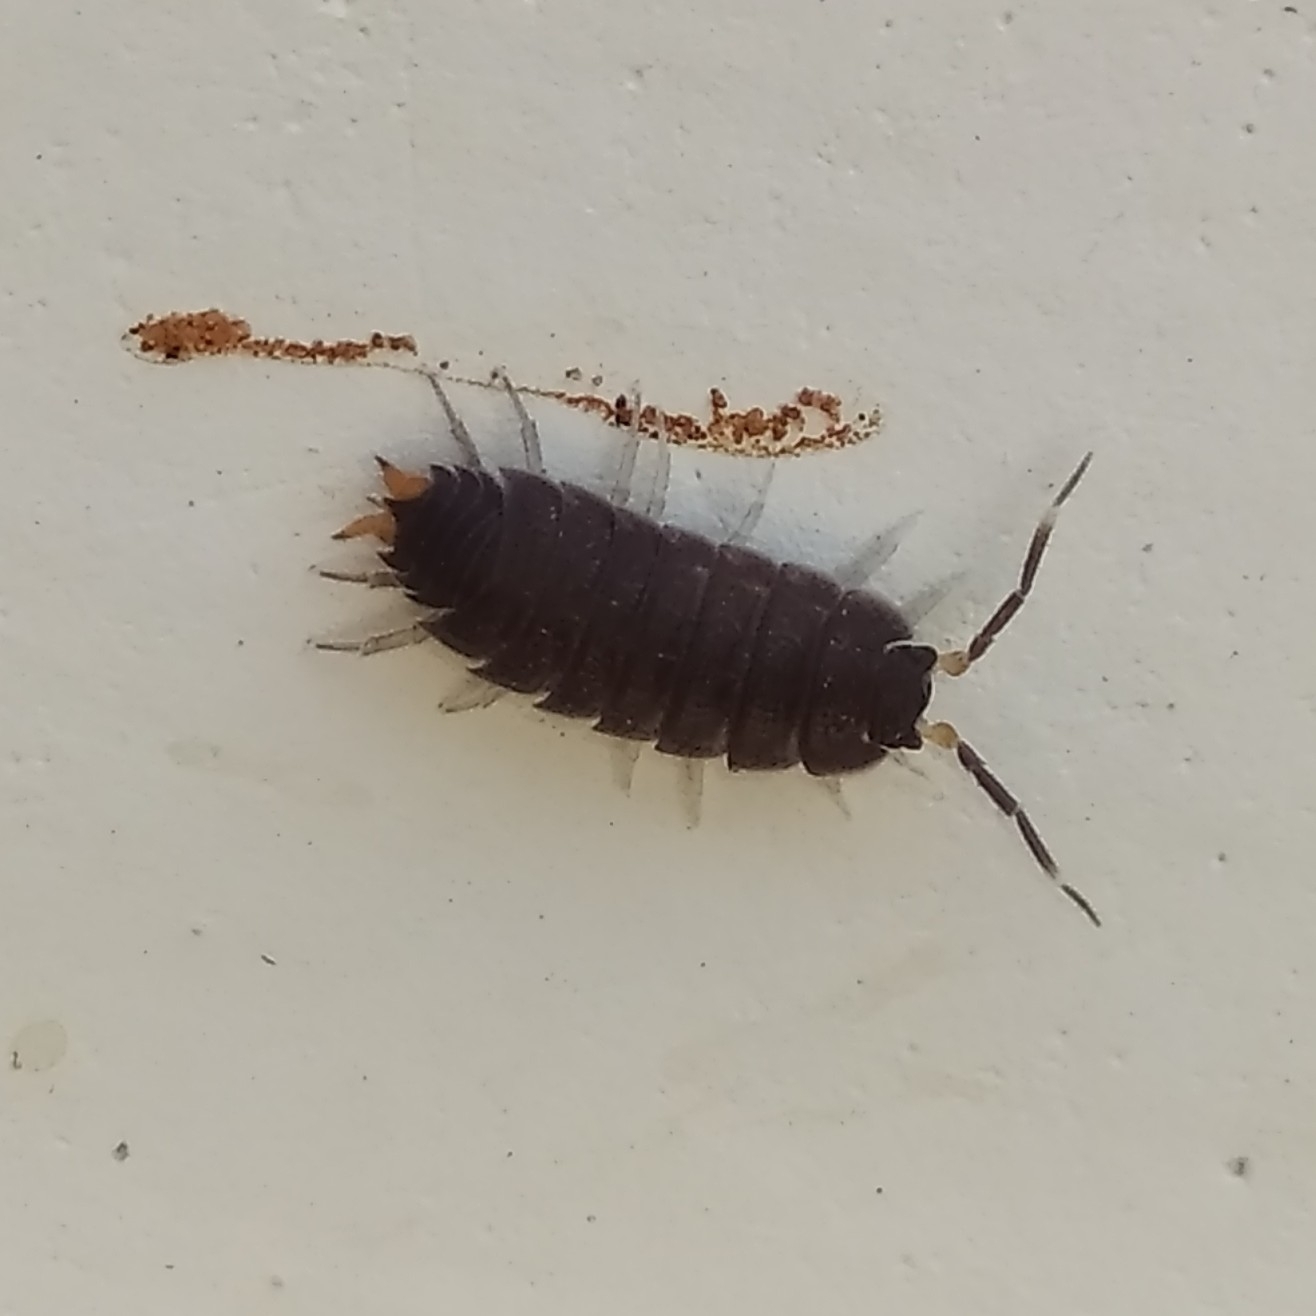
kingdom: Animalia
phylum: Arthropoda
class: Malacostraca
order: Isopoda
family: Porcellionidae
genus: Porcellionides
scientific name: Porcellionides
